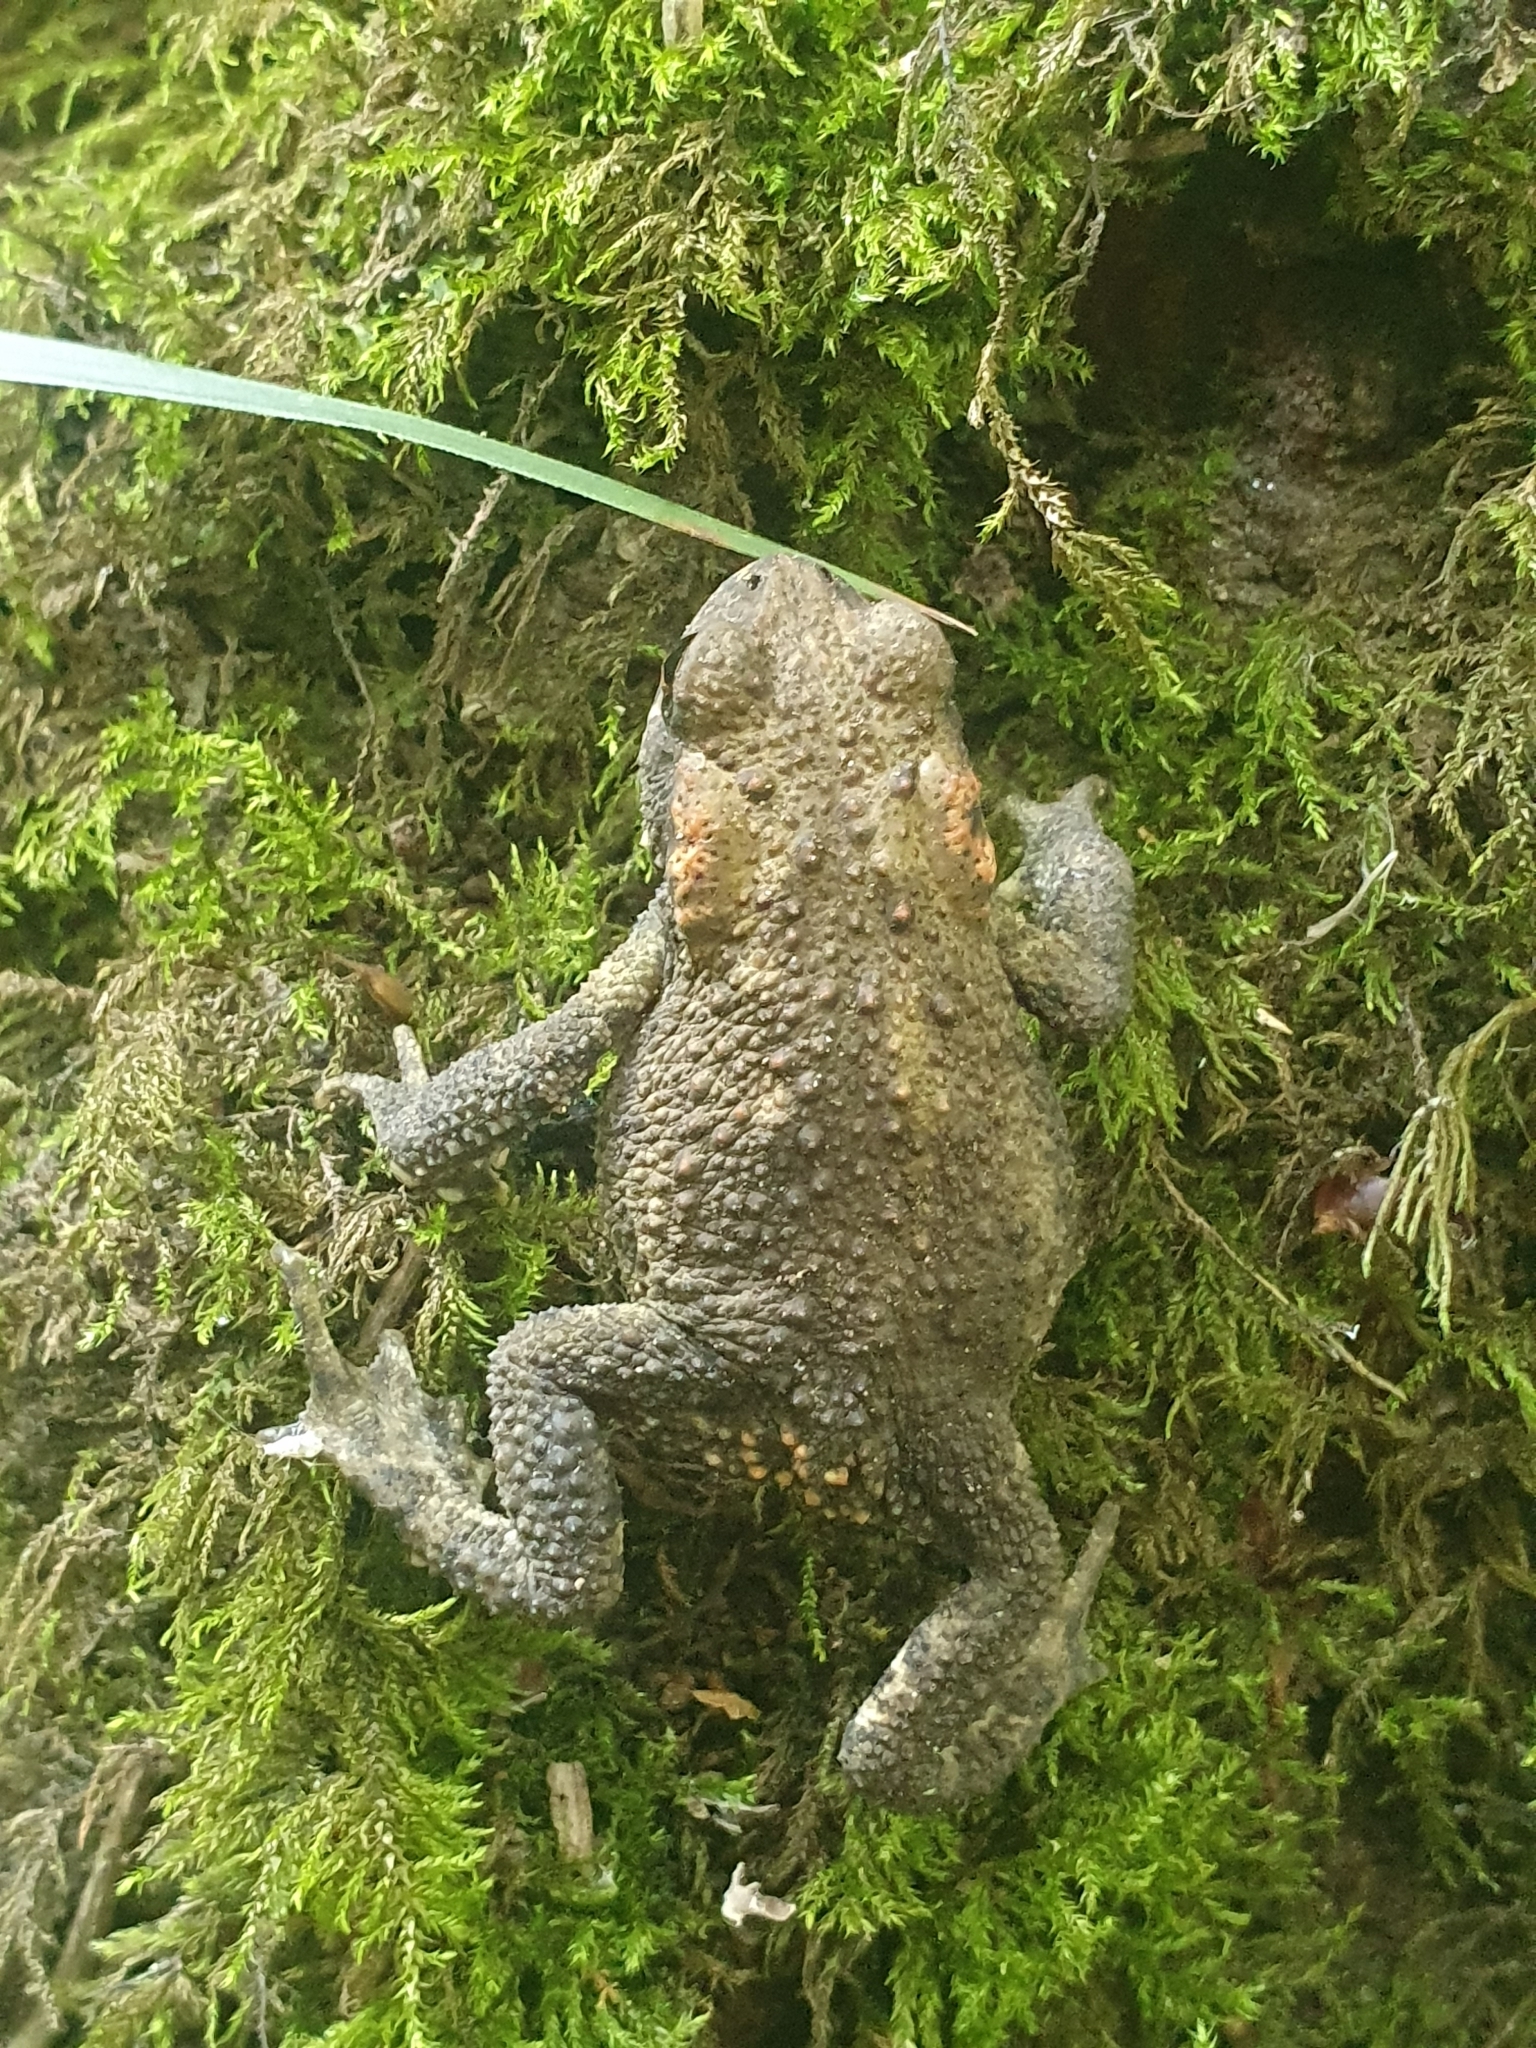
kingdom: Animalia
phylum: Chordata
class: Amphibia
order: Anura
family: Bufonidae
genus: Bufo
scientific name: Bufo spinosus
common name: Western common toad
